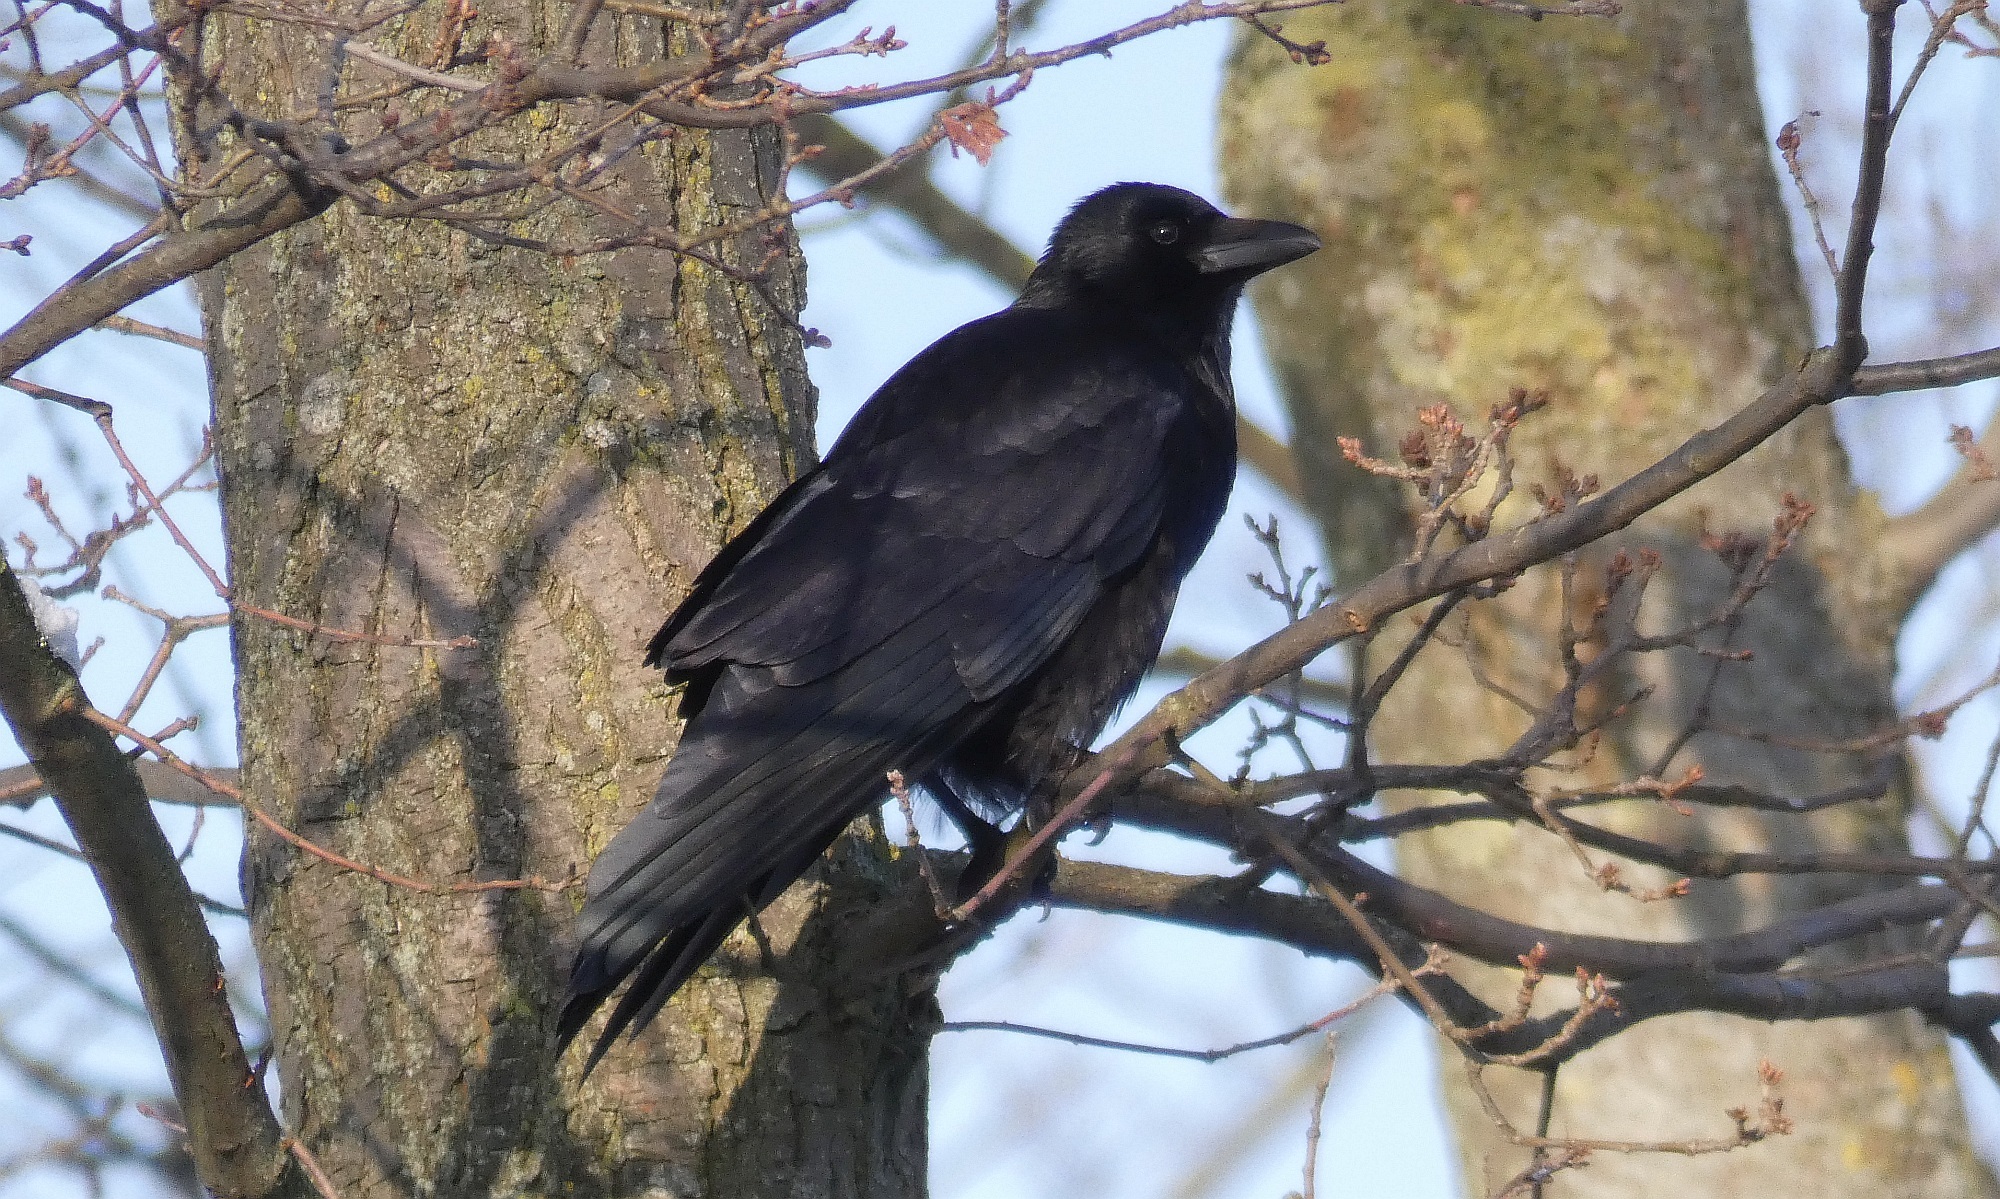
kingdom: Animalia
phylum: Chordata
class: Aves
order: Passeriformes
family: Corvidae
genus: Corvus
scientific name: Corvus corone
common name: Carrion crow
